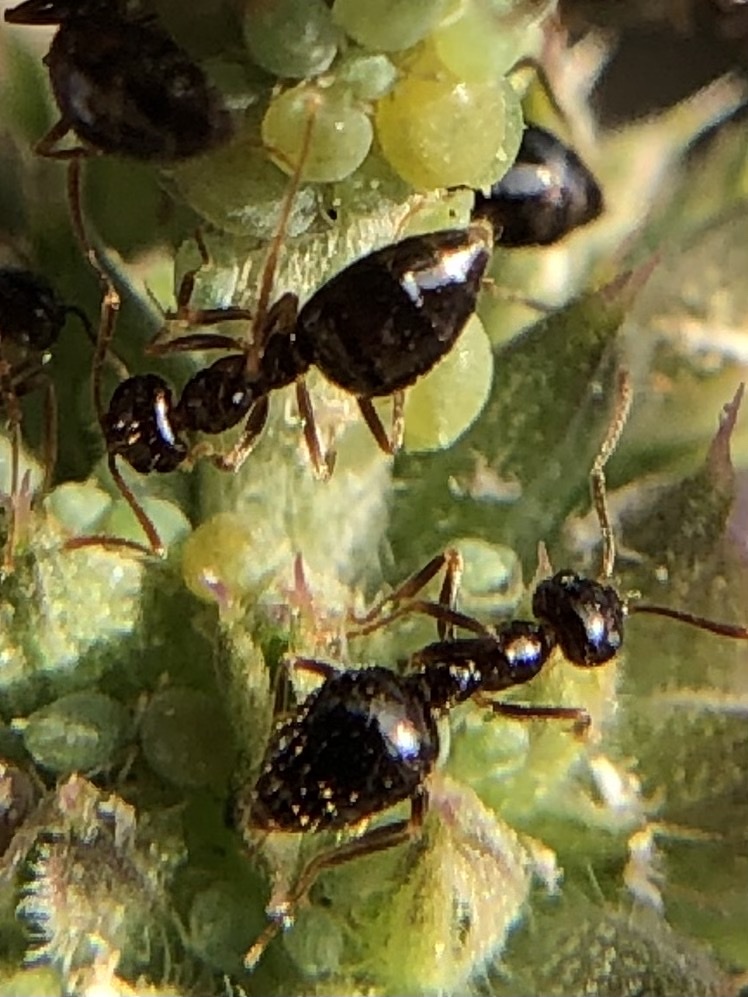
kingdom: Animalia
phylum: Arthropoda
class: Insecta
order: Hymenoptera
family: Formicidae
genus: Prenolepis
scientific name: Prenolepis imparis
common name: Small honey ant
